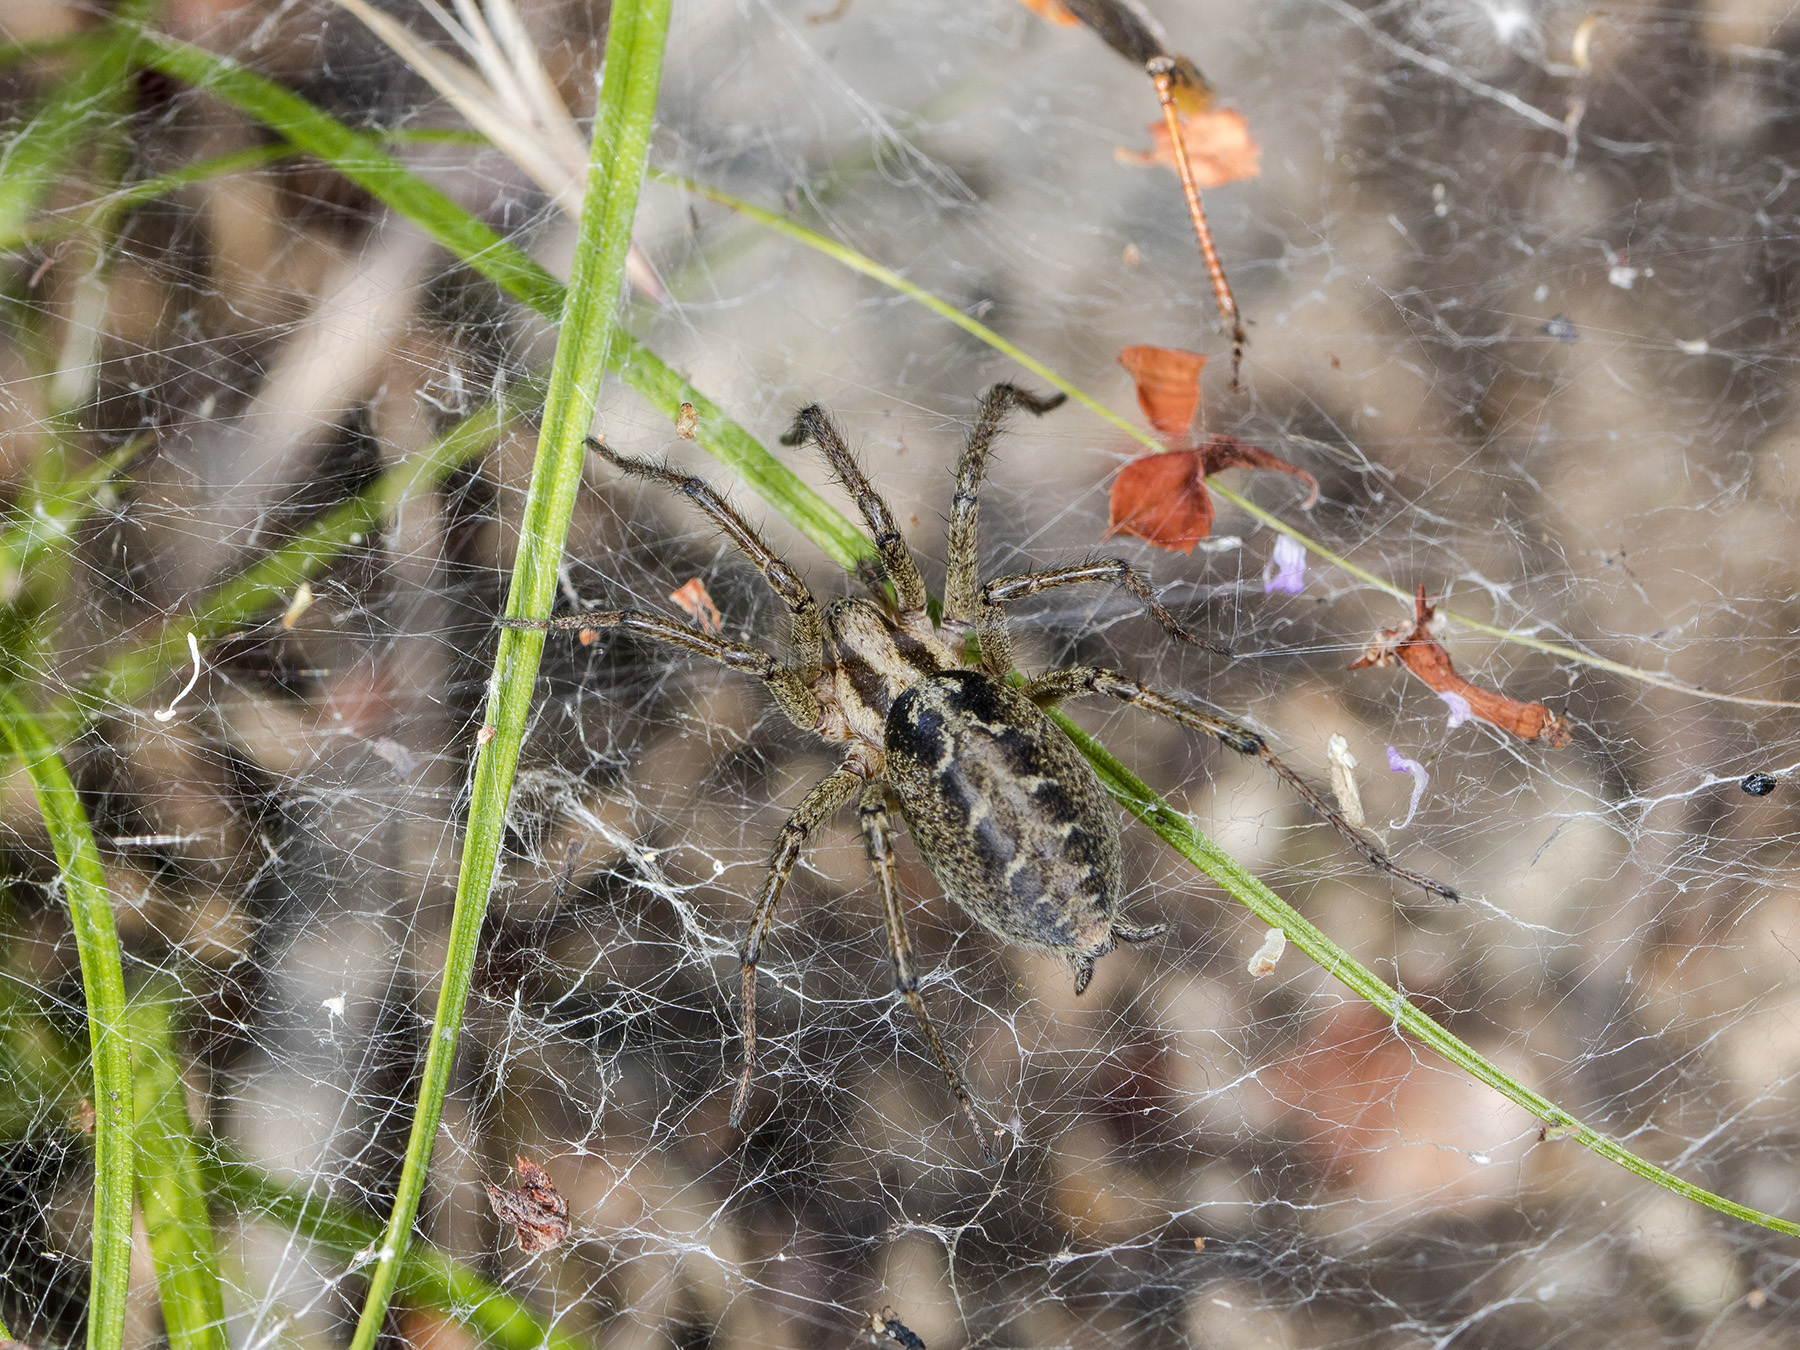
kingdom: Animalia
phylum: Arthropoda
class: Arachnida
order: Araneae
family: Agelenidae
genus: Agelena
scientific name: Agelena labyrinthica
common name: Labyrinth spider
